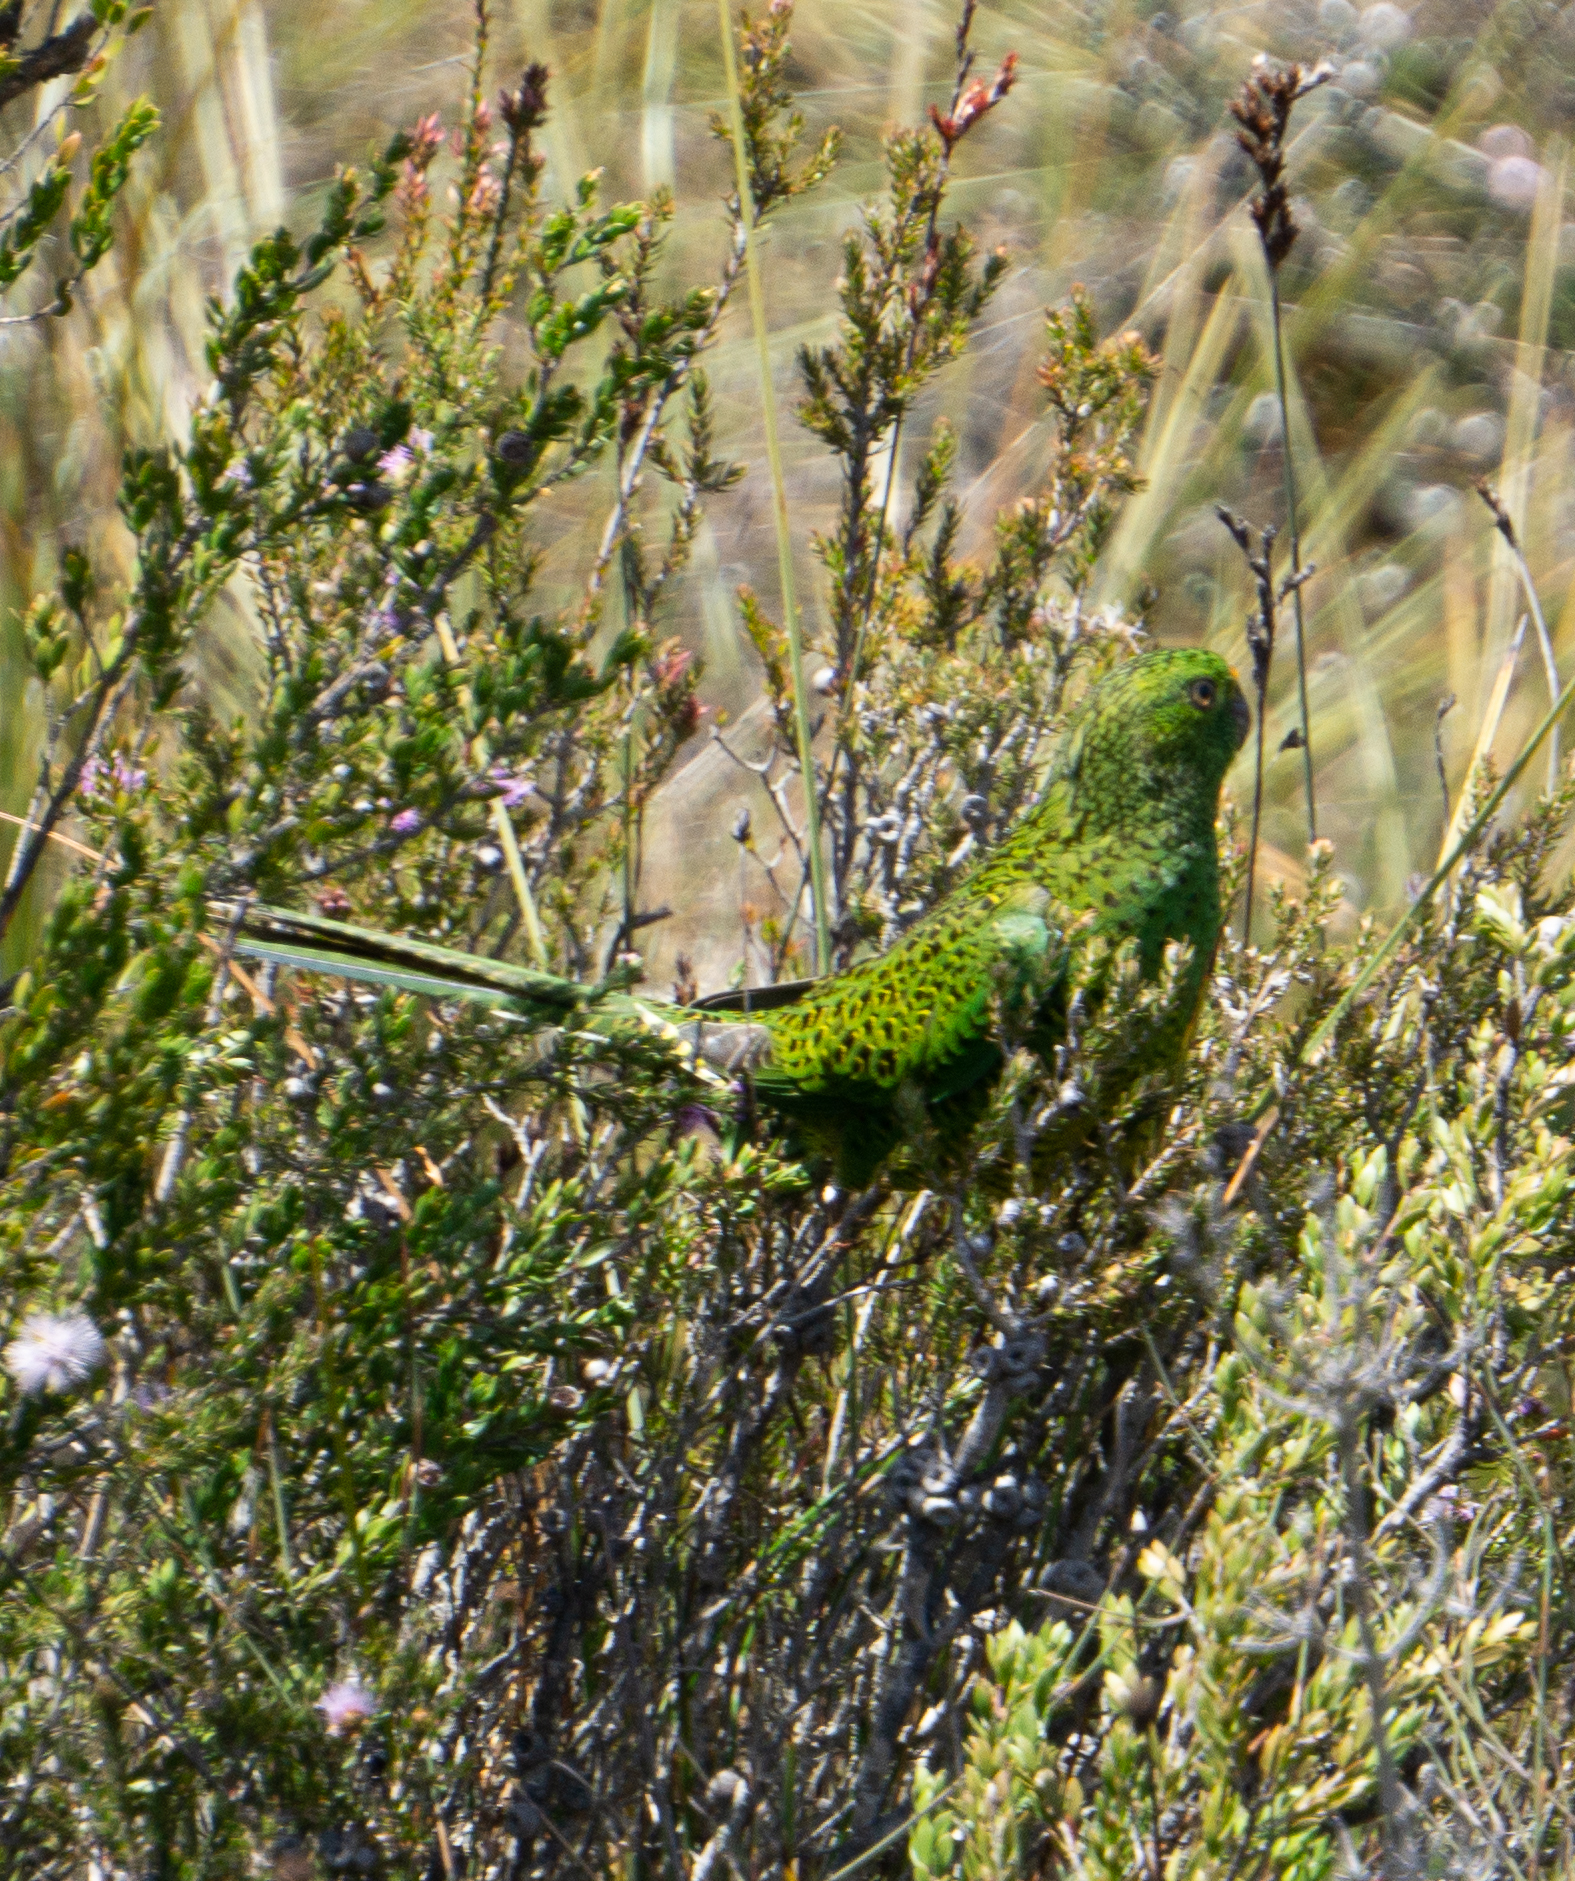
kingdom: Animalia
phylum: Chordata
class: Aves
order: Psittaciformes
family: Psittacidae
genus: Pezoporus
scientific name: Pezoporus wallicus
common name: Ground parrot
